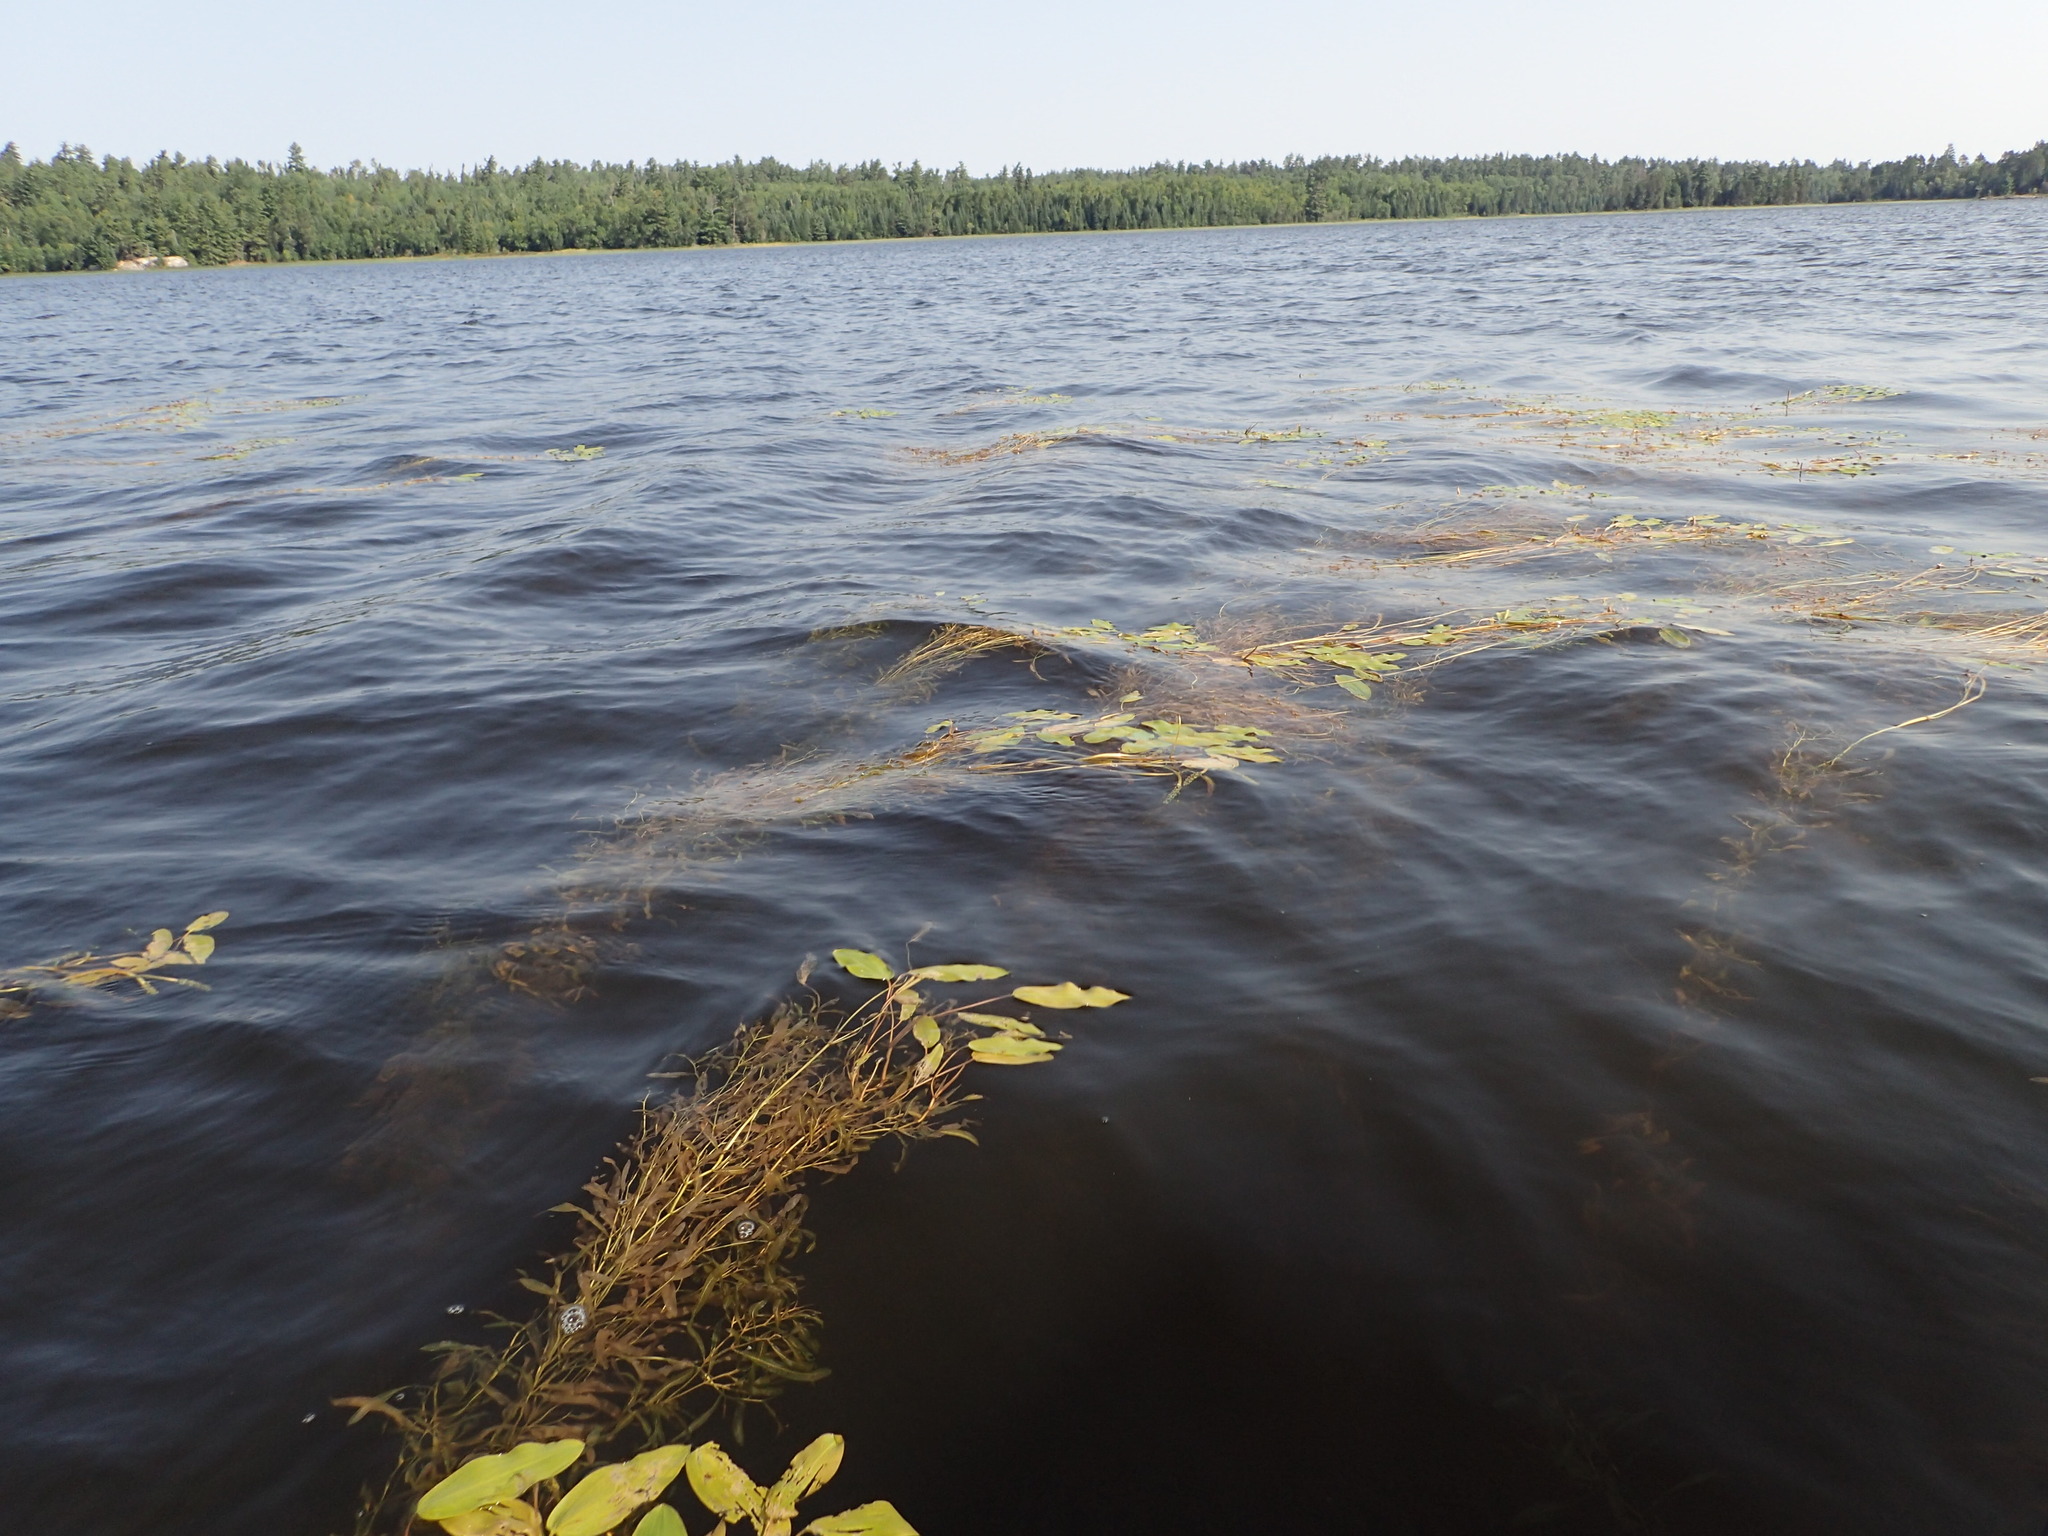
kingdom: Plantae
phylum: Tracheophyta
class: Liliopsida
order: Alismatales
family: Potamogetonaceae
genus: Potamogeton
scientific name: Potamogeton gramineus
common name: Various-leaved pondweed
